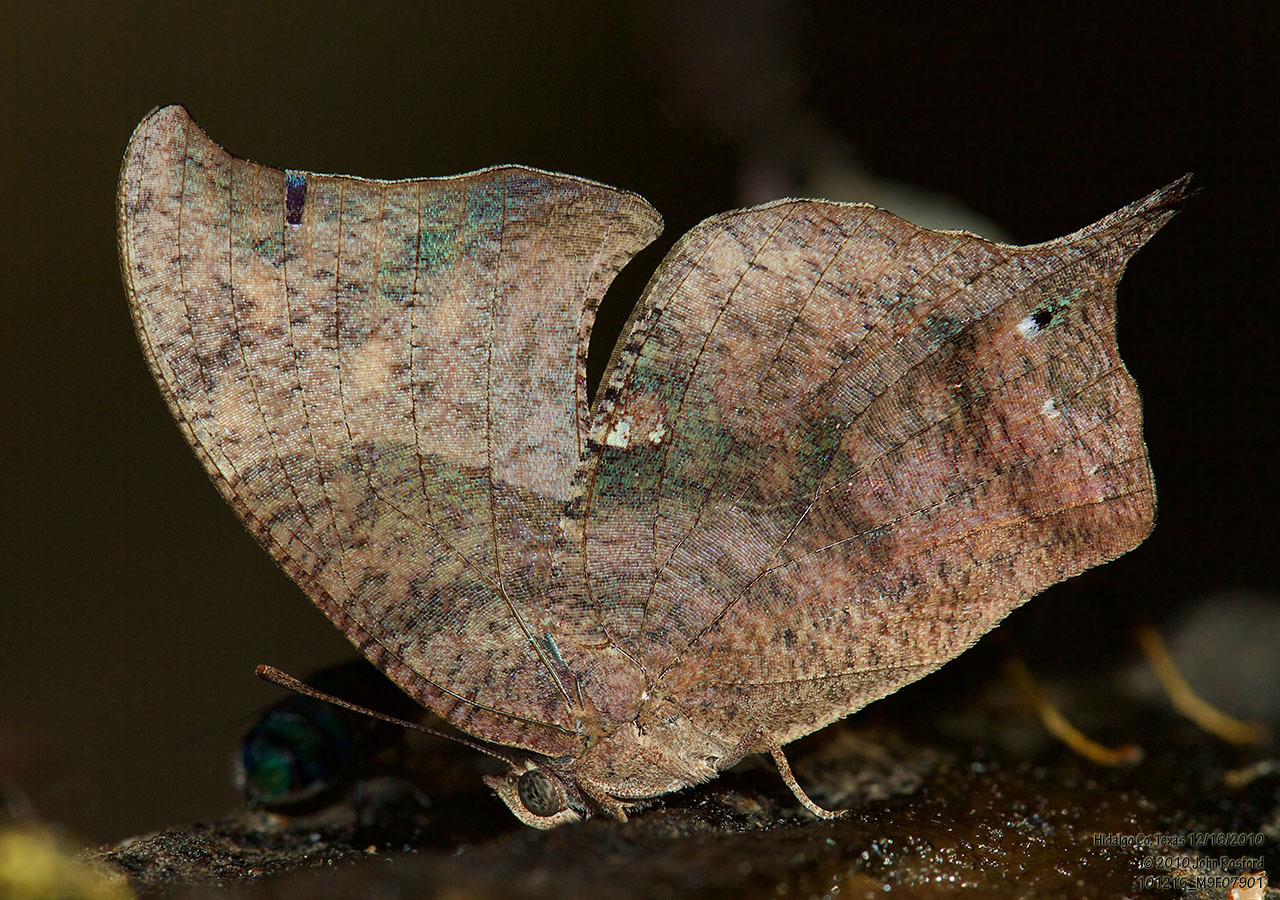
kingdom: Animalia
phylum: Arthropoda
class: Insecta
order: Lepidoptera
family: Nymphalidae
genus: Anaea
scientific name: Anaea pithyusa
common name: Pale-spotted leafwing
